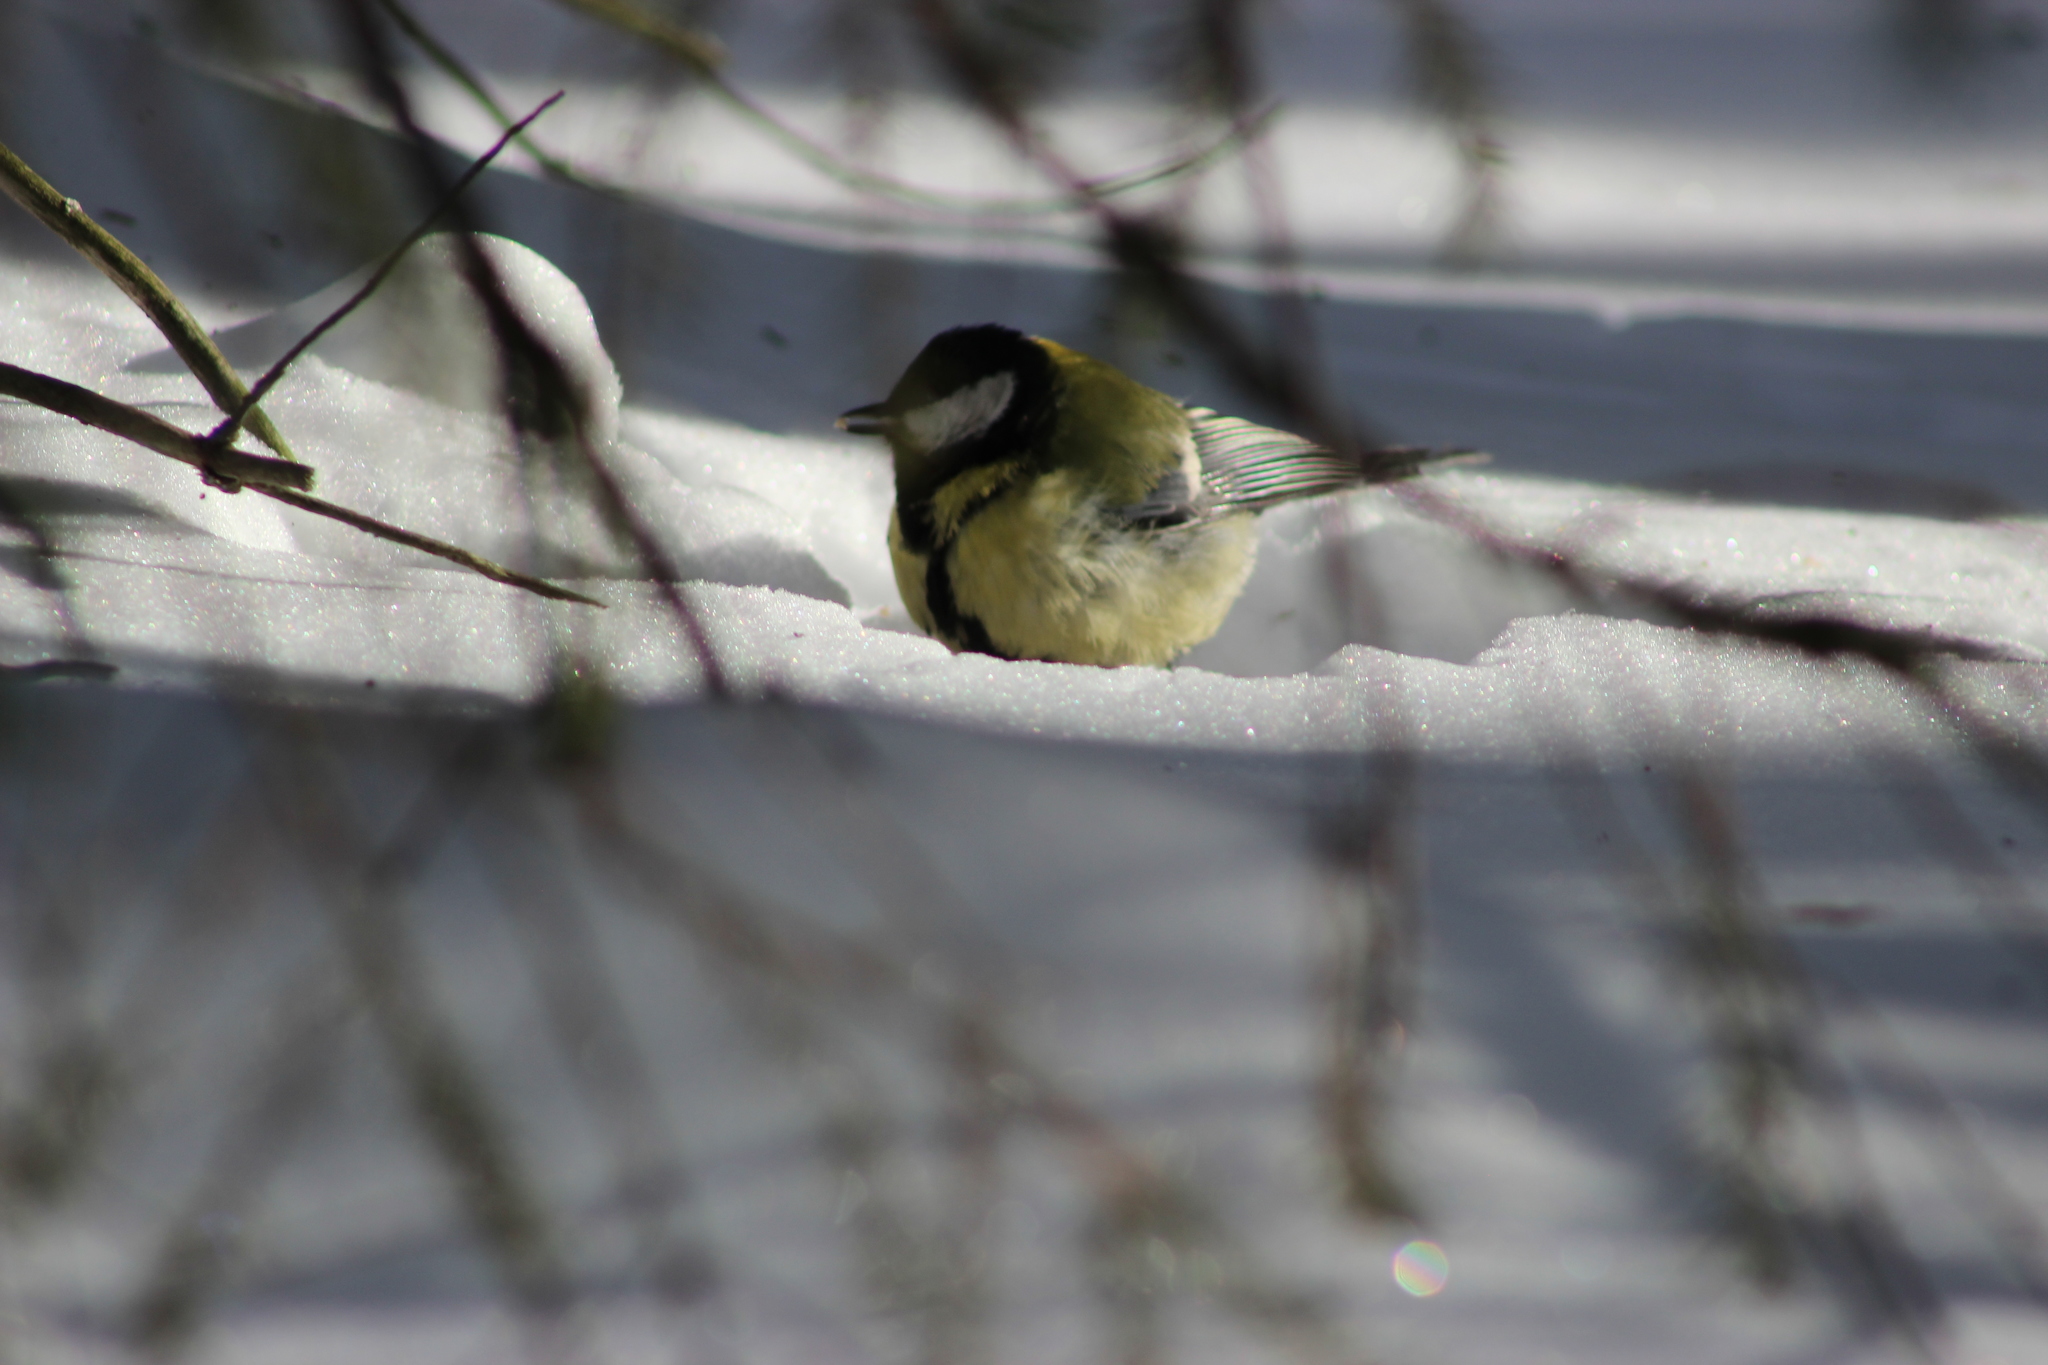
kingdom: Animalia
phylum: Chordata
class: Aves
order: Passeriformes
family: Paridae
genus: Parus
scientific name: Parus major
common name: Great tit
